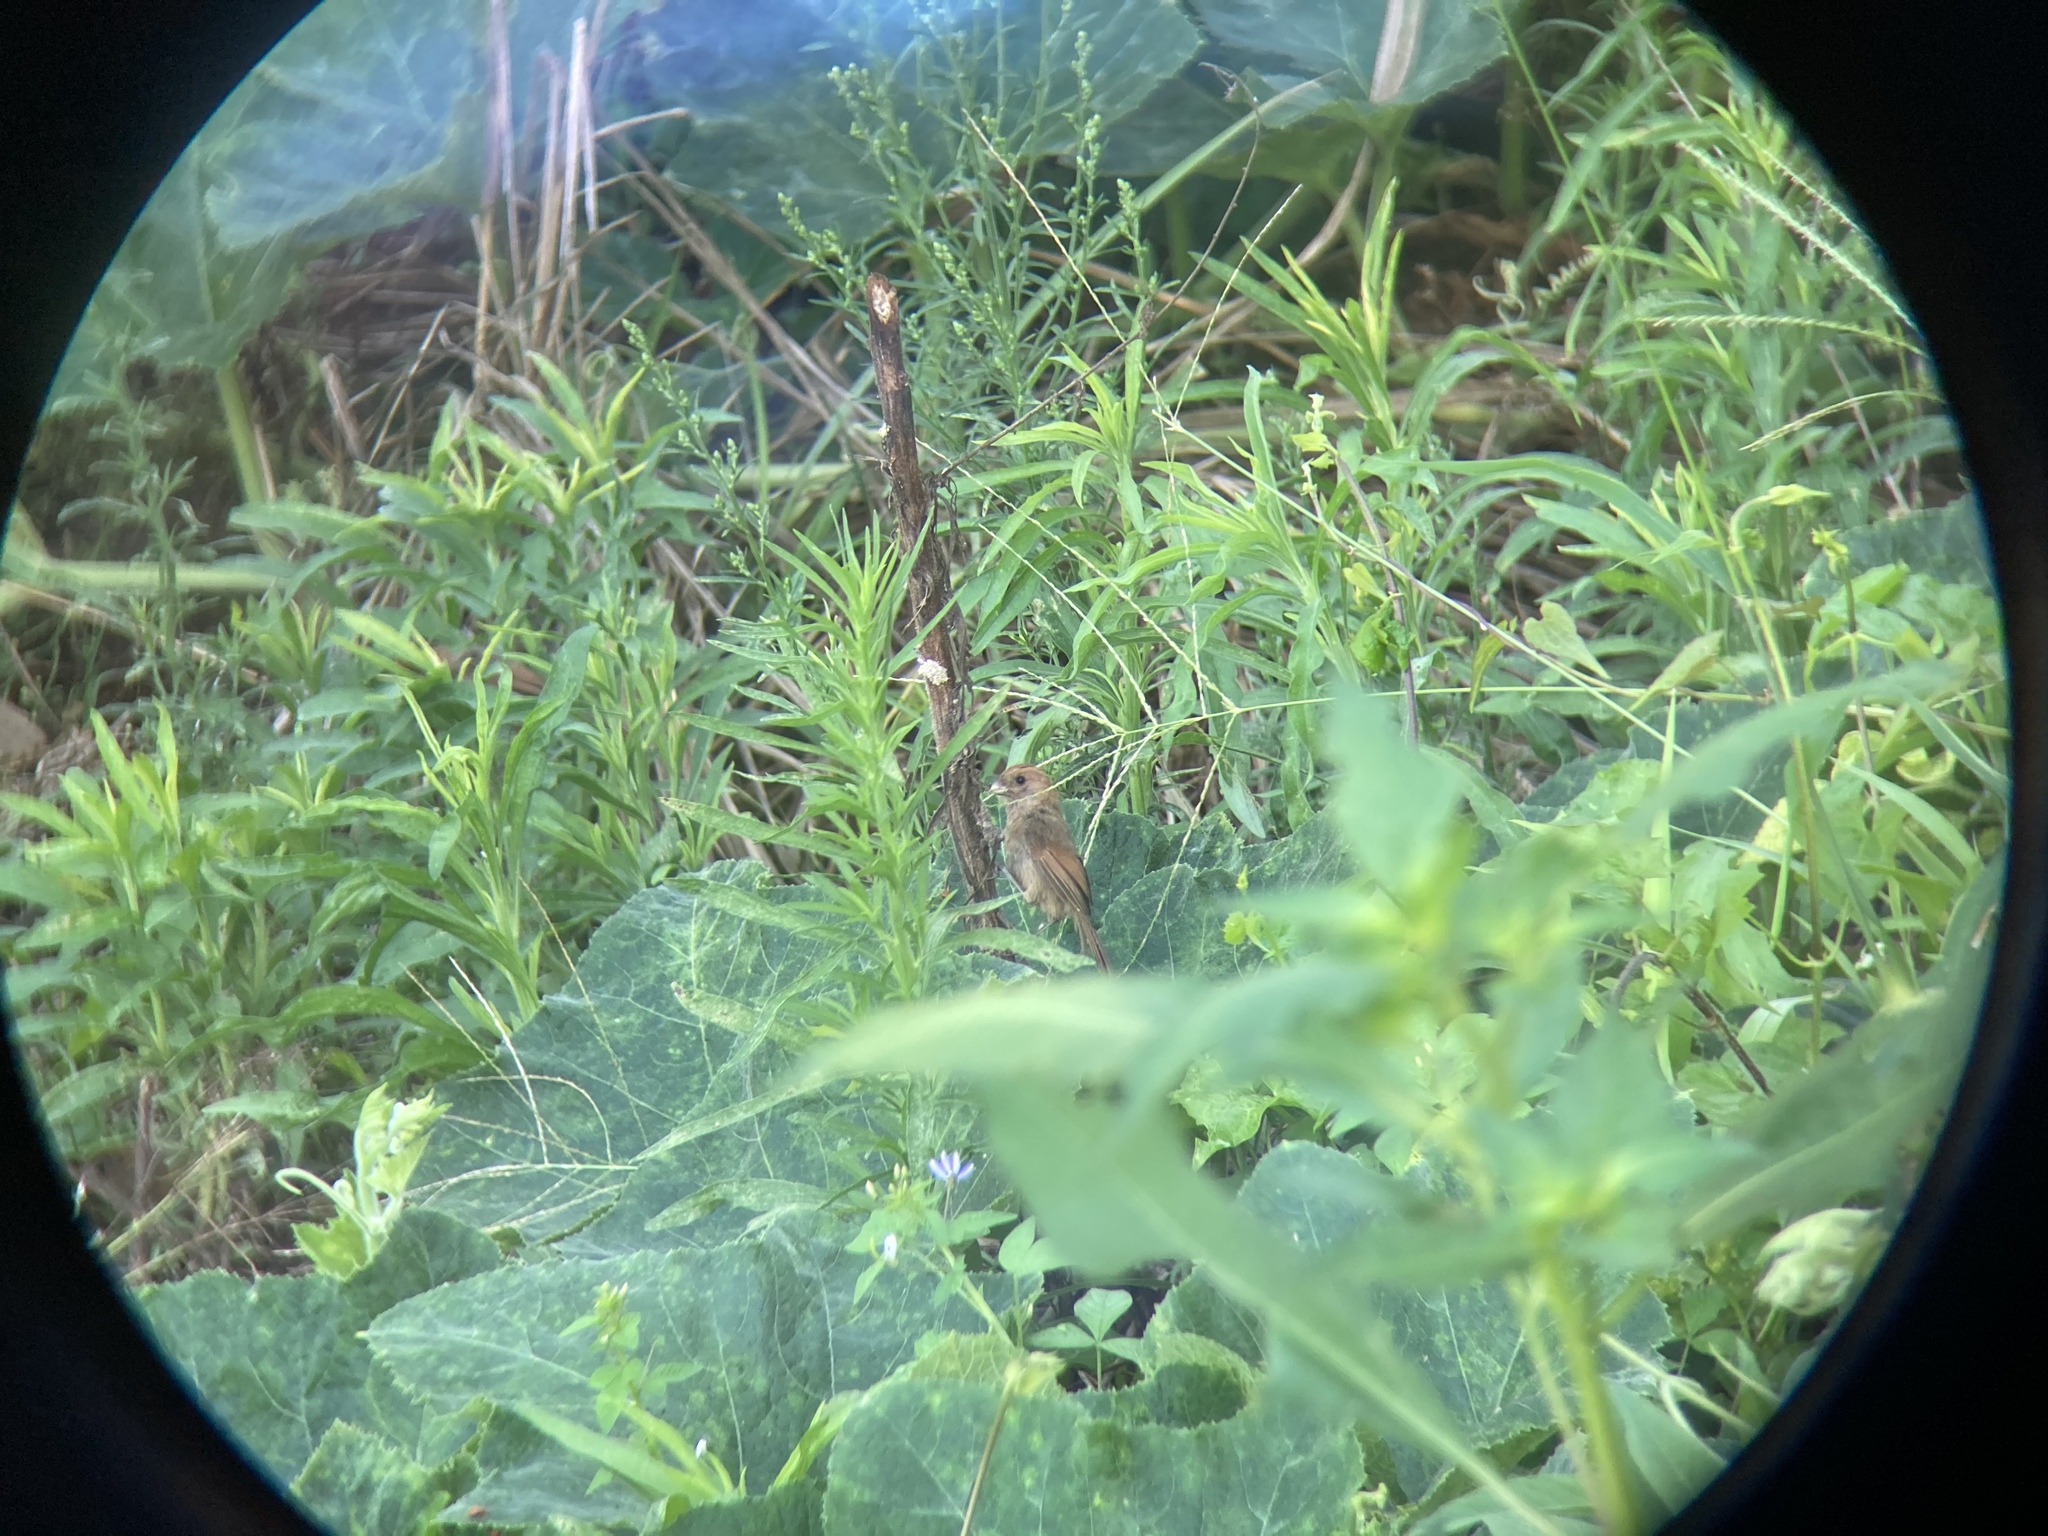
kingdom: Animalia
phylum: Chordata
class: Aves
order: Passeriformes
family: Sylviidae
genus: Sinosuthora
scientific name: Sinosuthora webbiana
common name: Vinous-throated parrotbill
